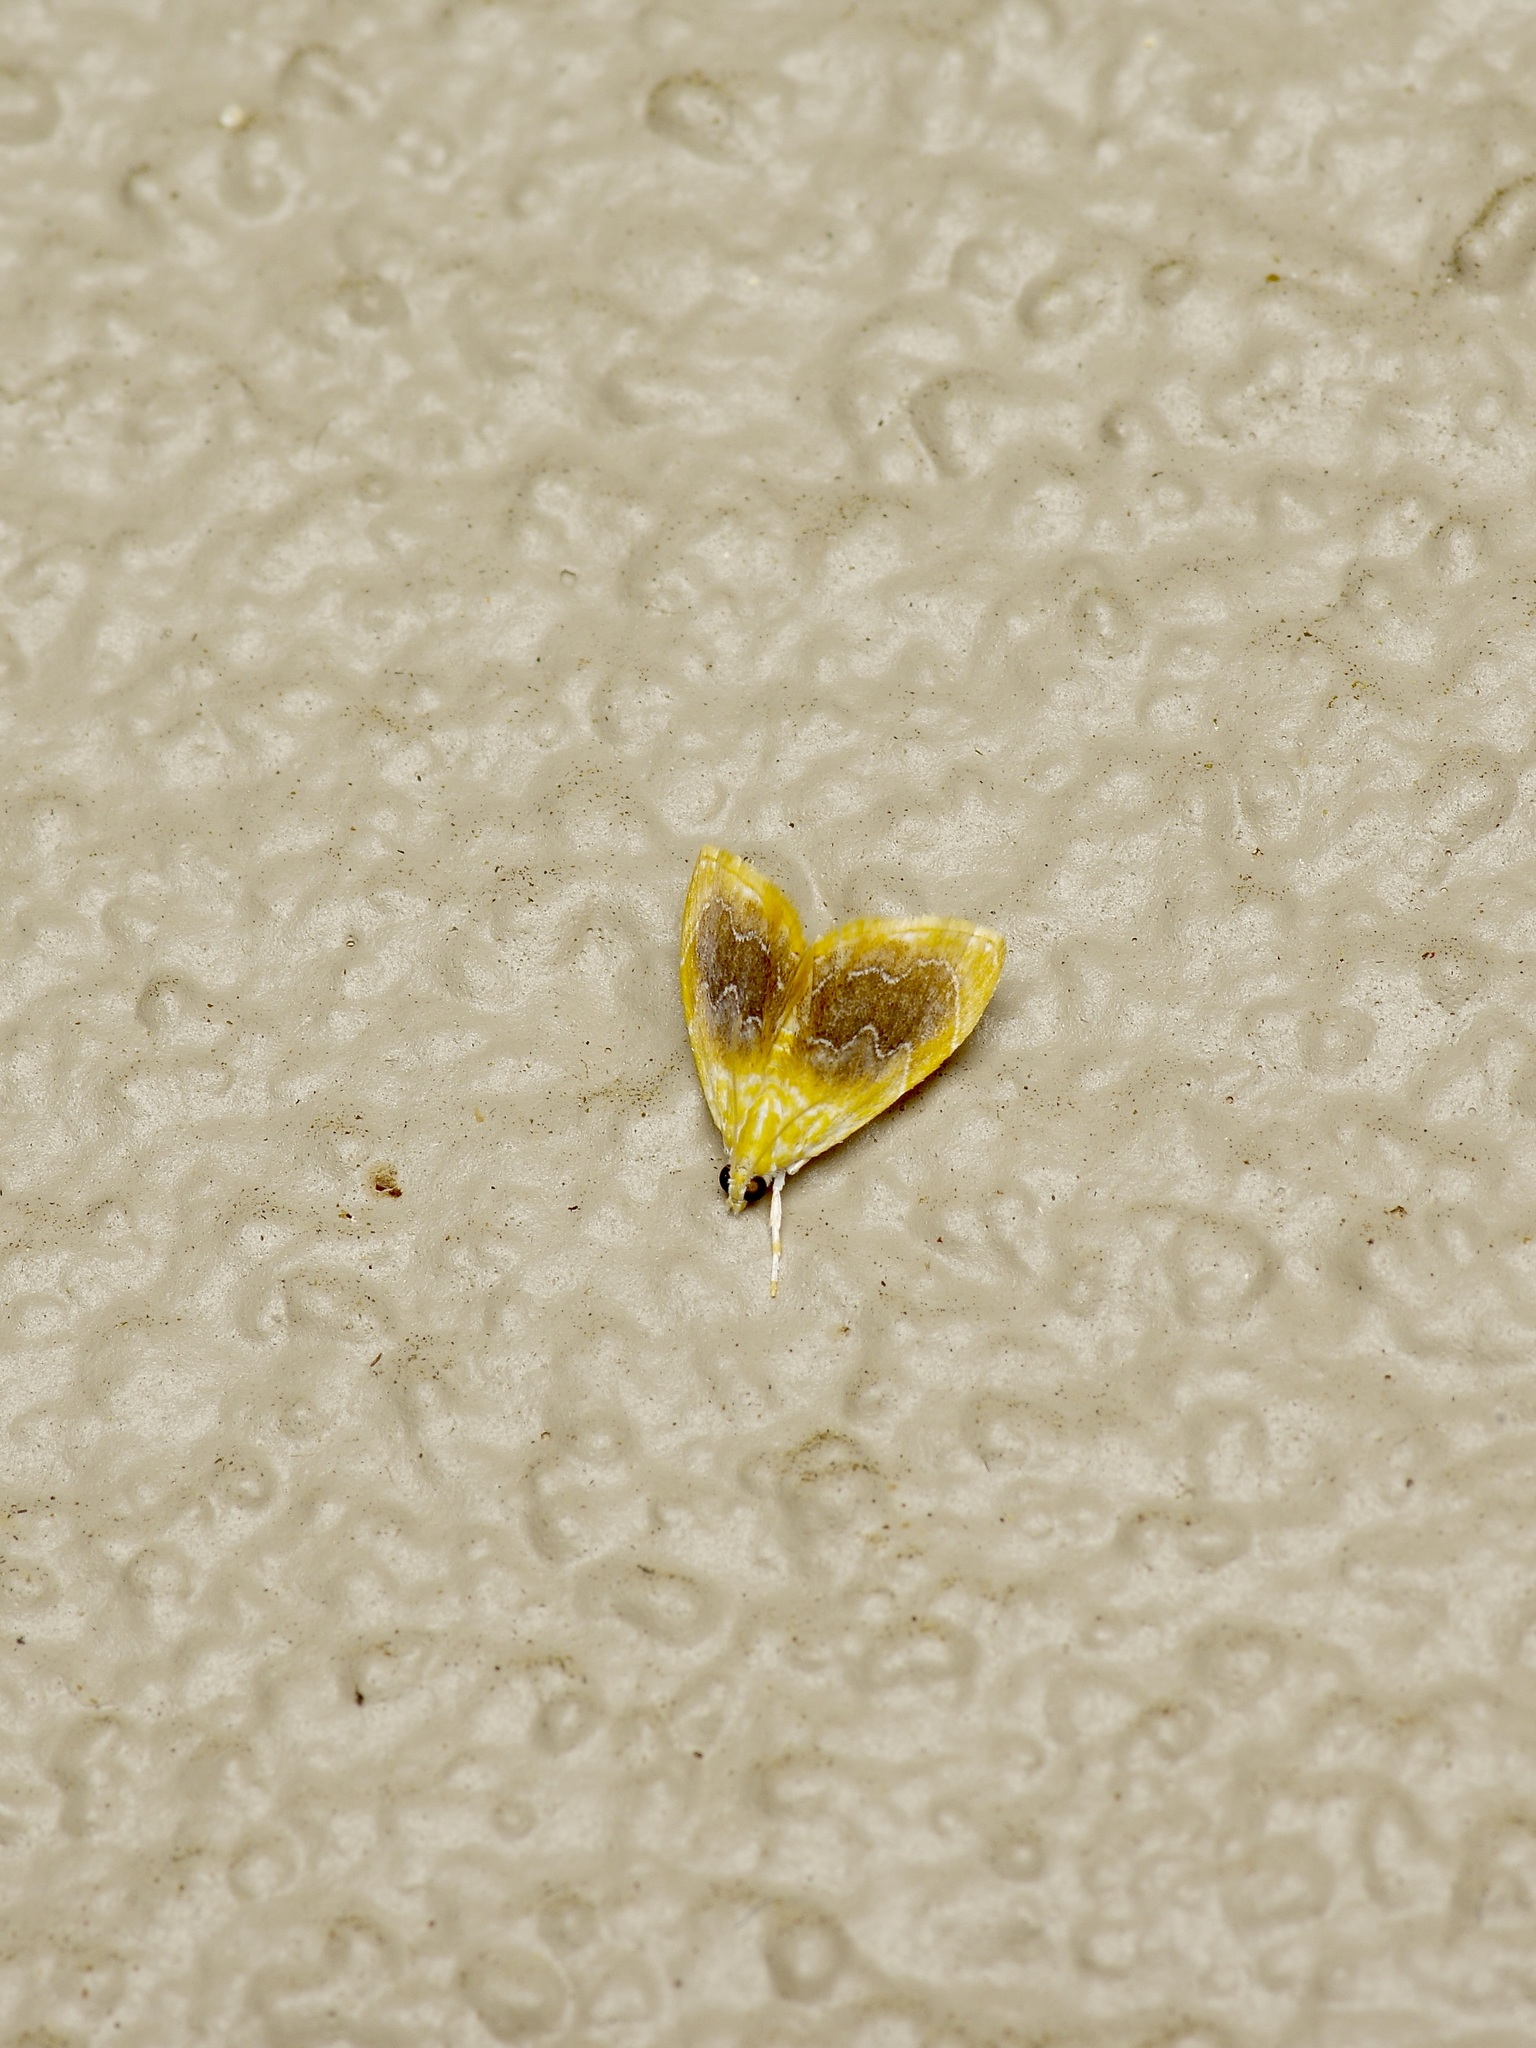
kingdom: Animalia
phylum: Arthropoda
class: Insecta
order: Lepidoptera
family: Crambidae
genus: Glaphyria
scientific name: Glaphyria fulminalis
